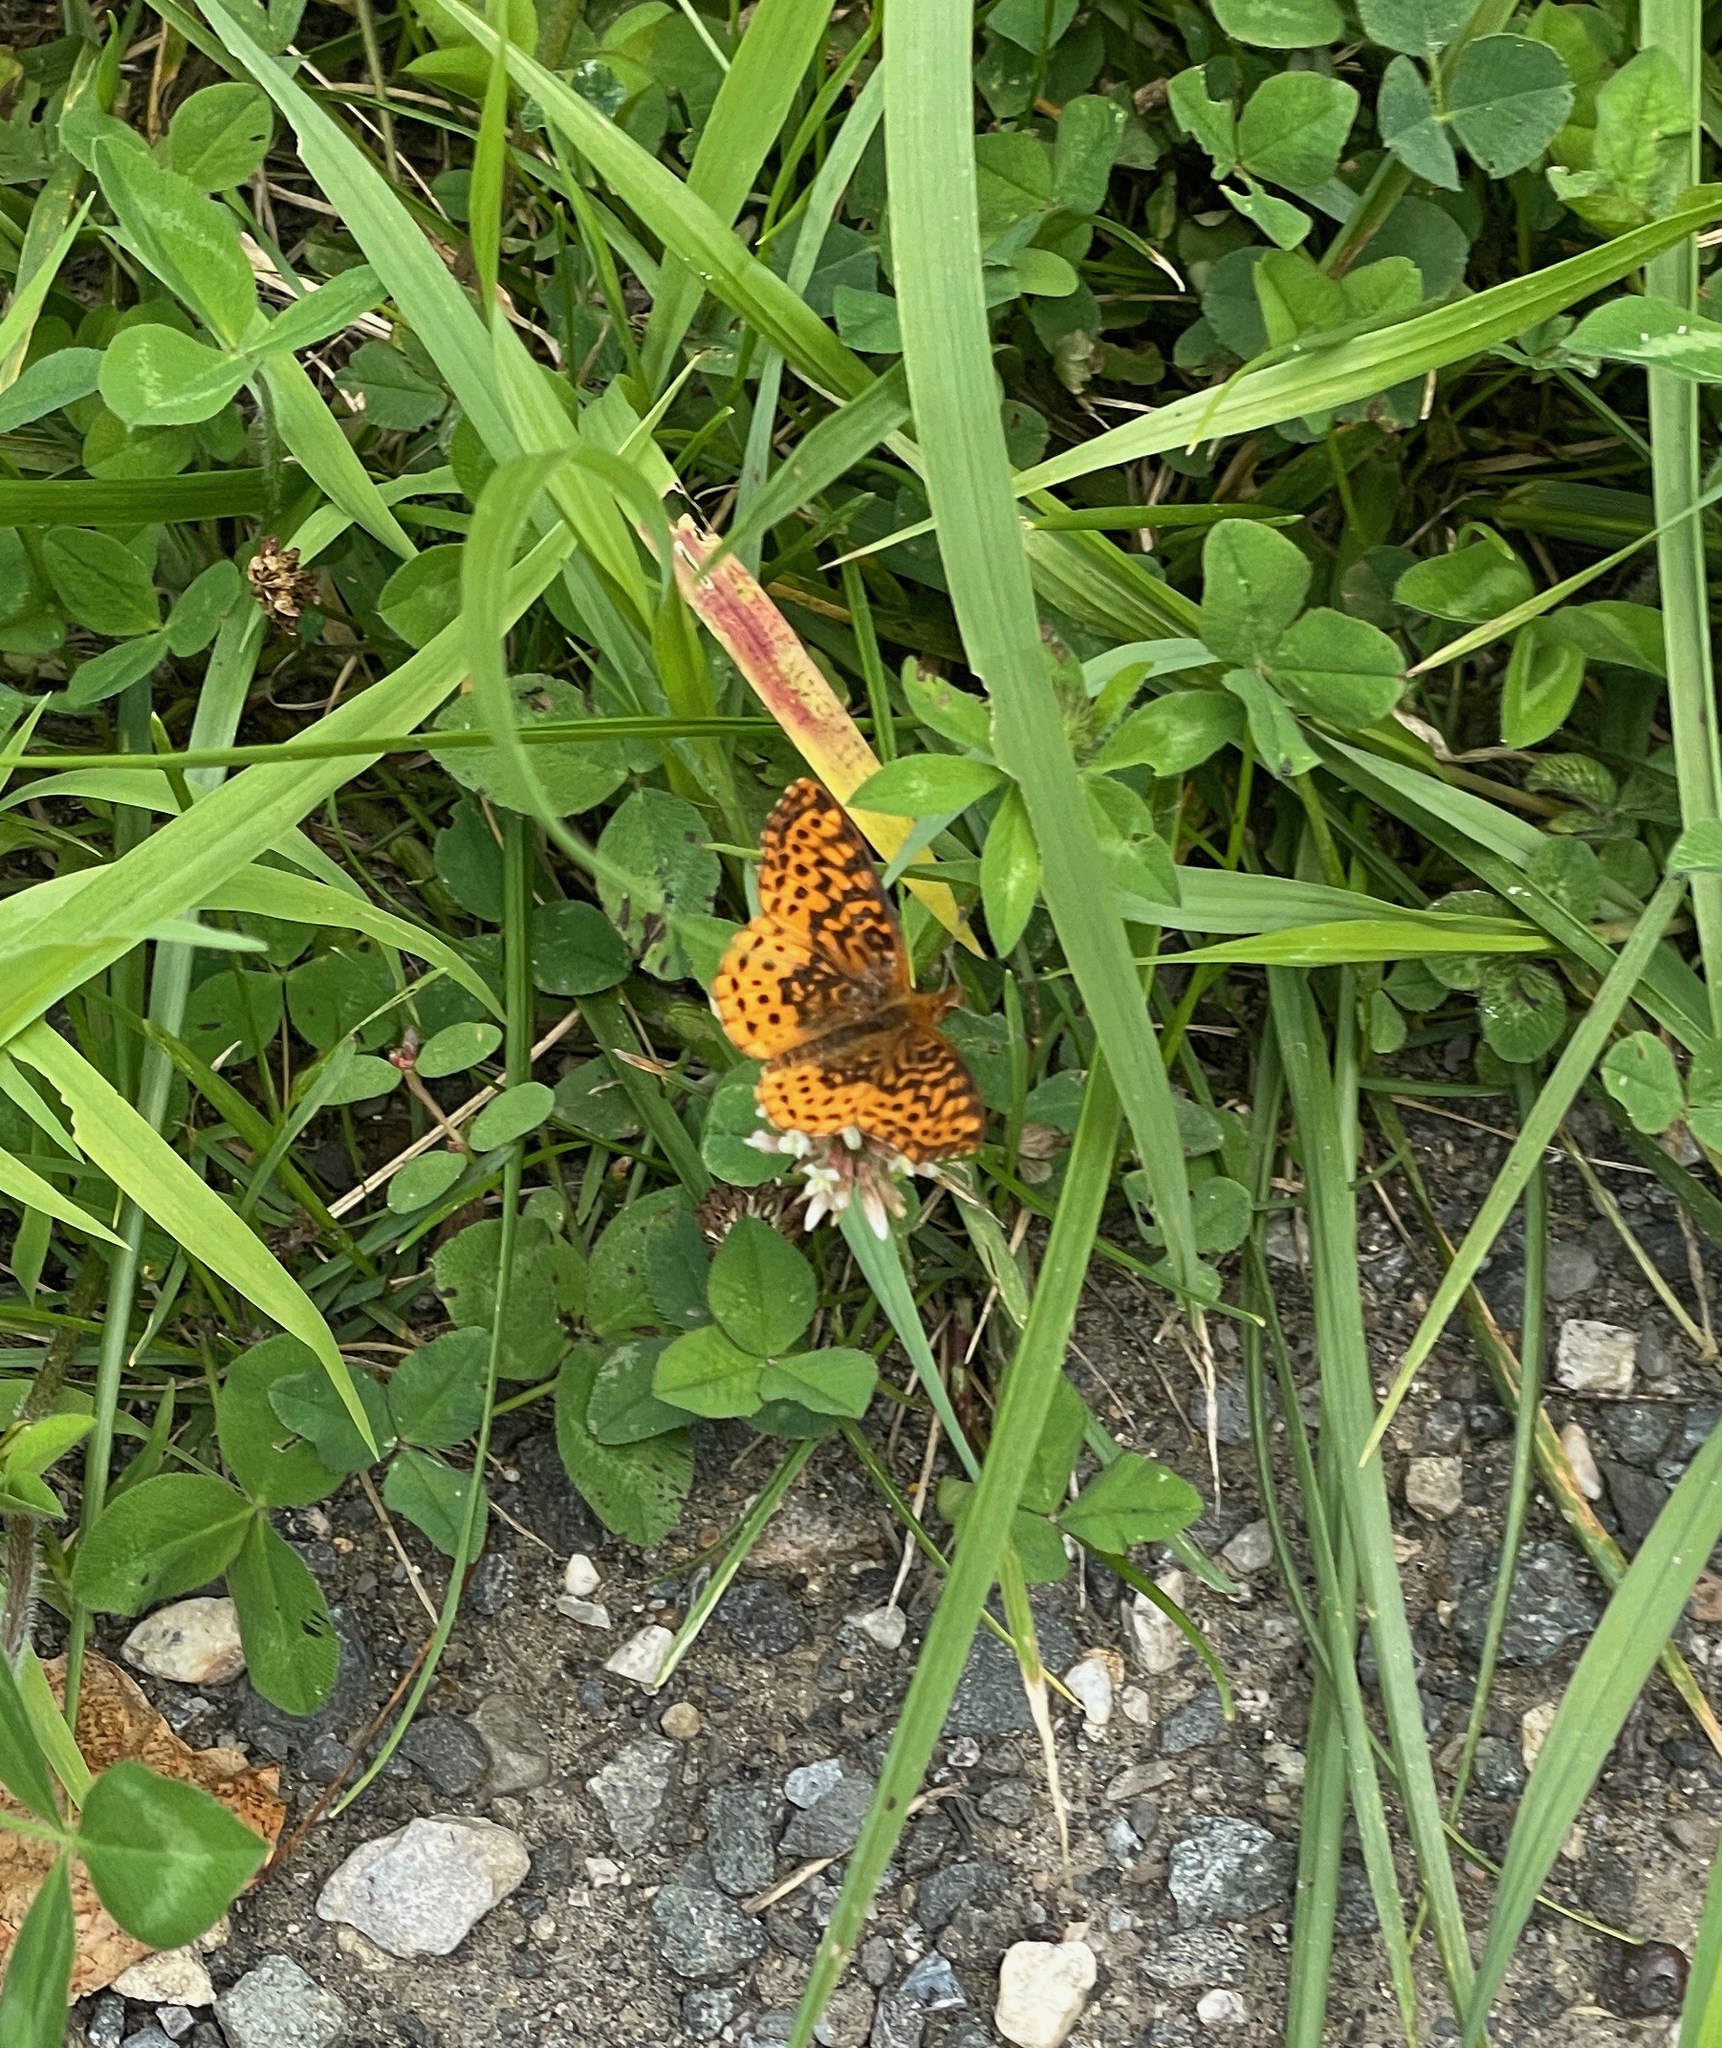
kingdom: Animalia
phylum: Arthropoda
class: Insecta
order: Lepidoptera
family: Nymphalidae
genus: Clossiana
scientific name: Clossiana toddi
